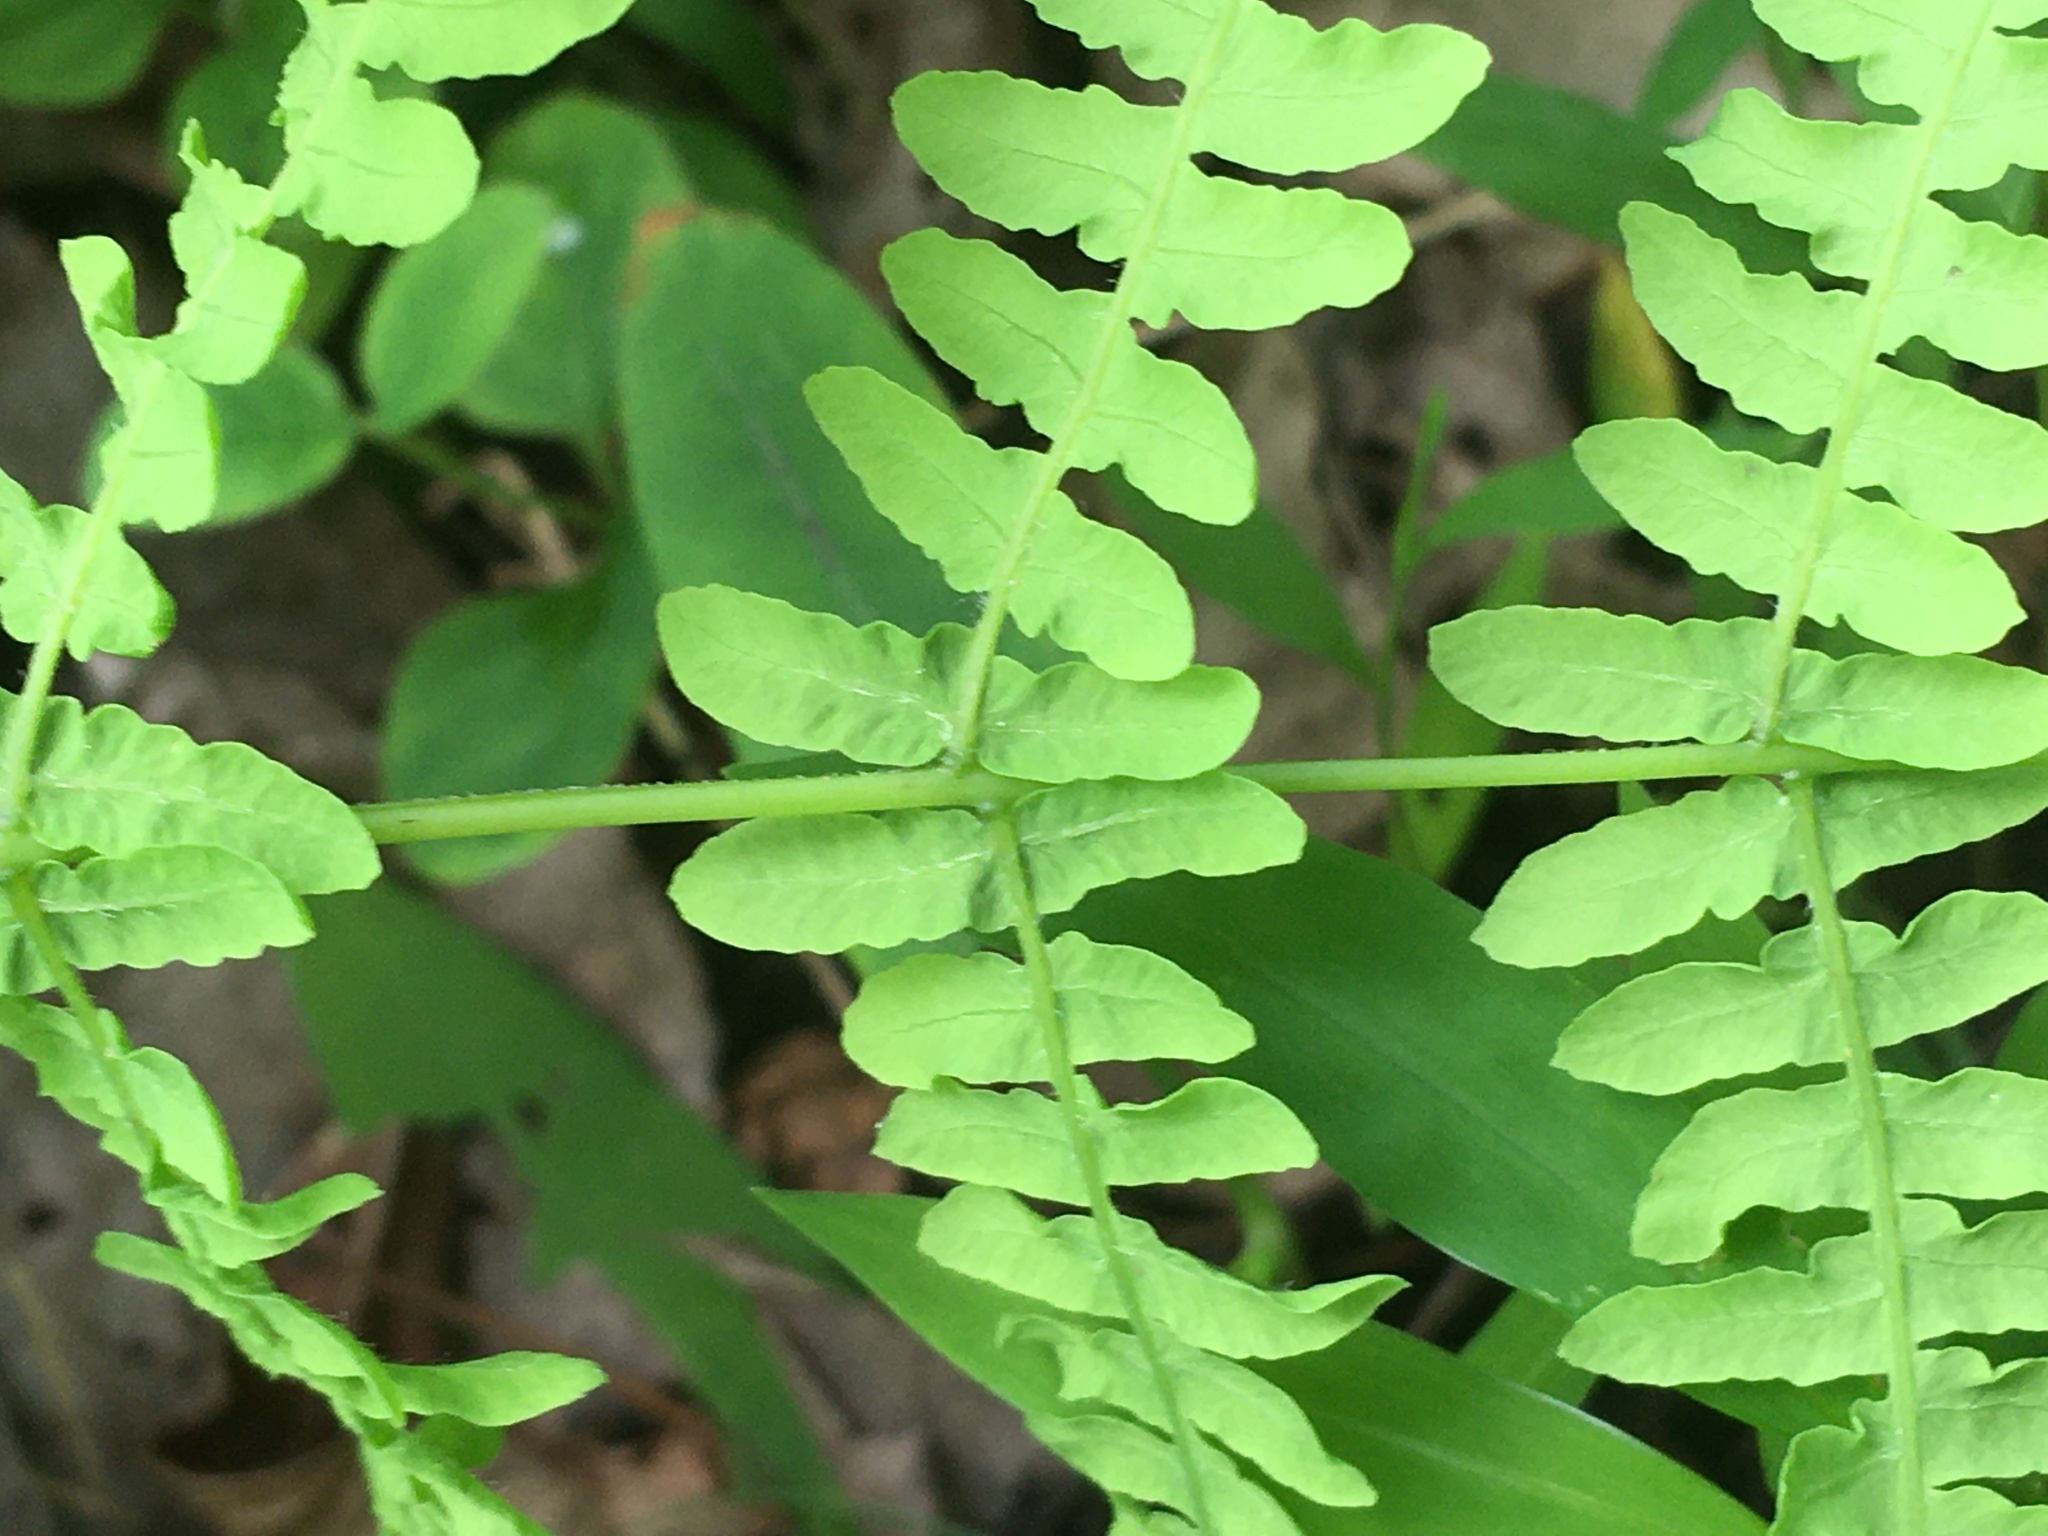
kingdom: Plantae
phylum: Tracheophyta
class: Polypodiopsida
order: Polypodiales
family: Thelypteridaceae
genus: Thelypteris
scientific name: Thelypteris palustris
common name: Marsh fern
